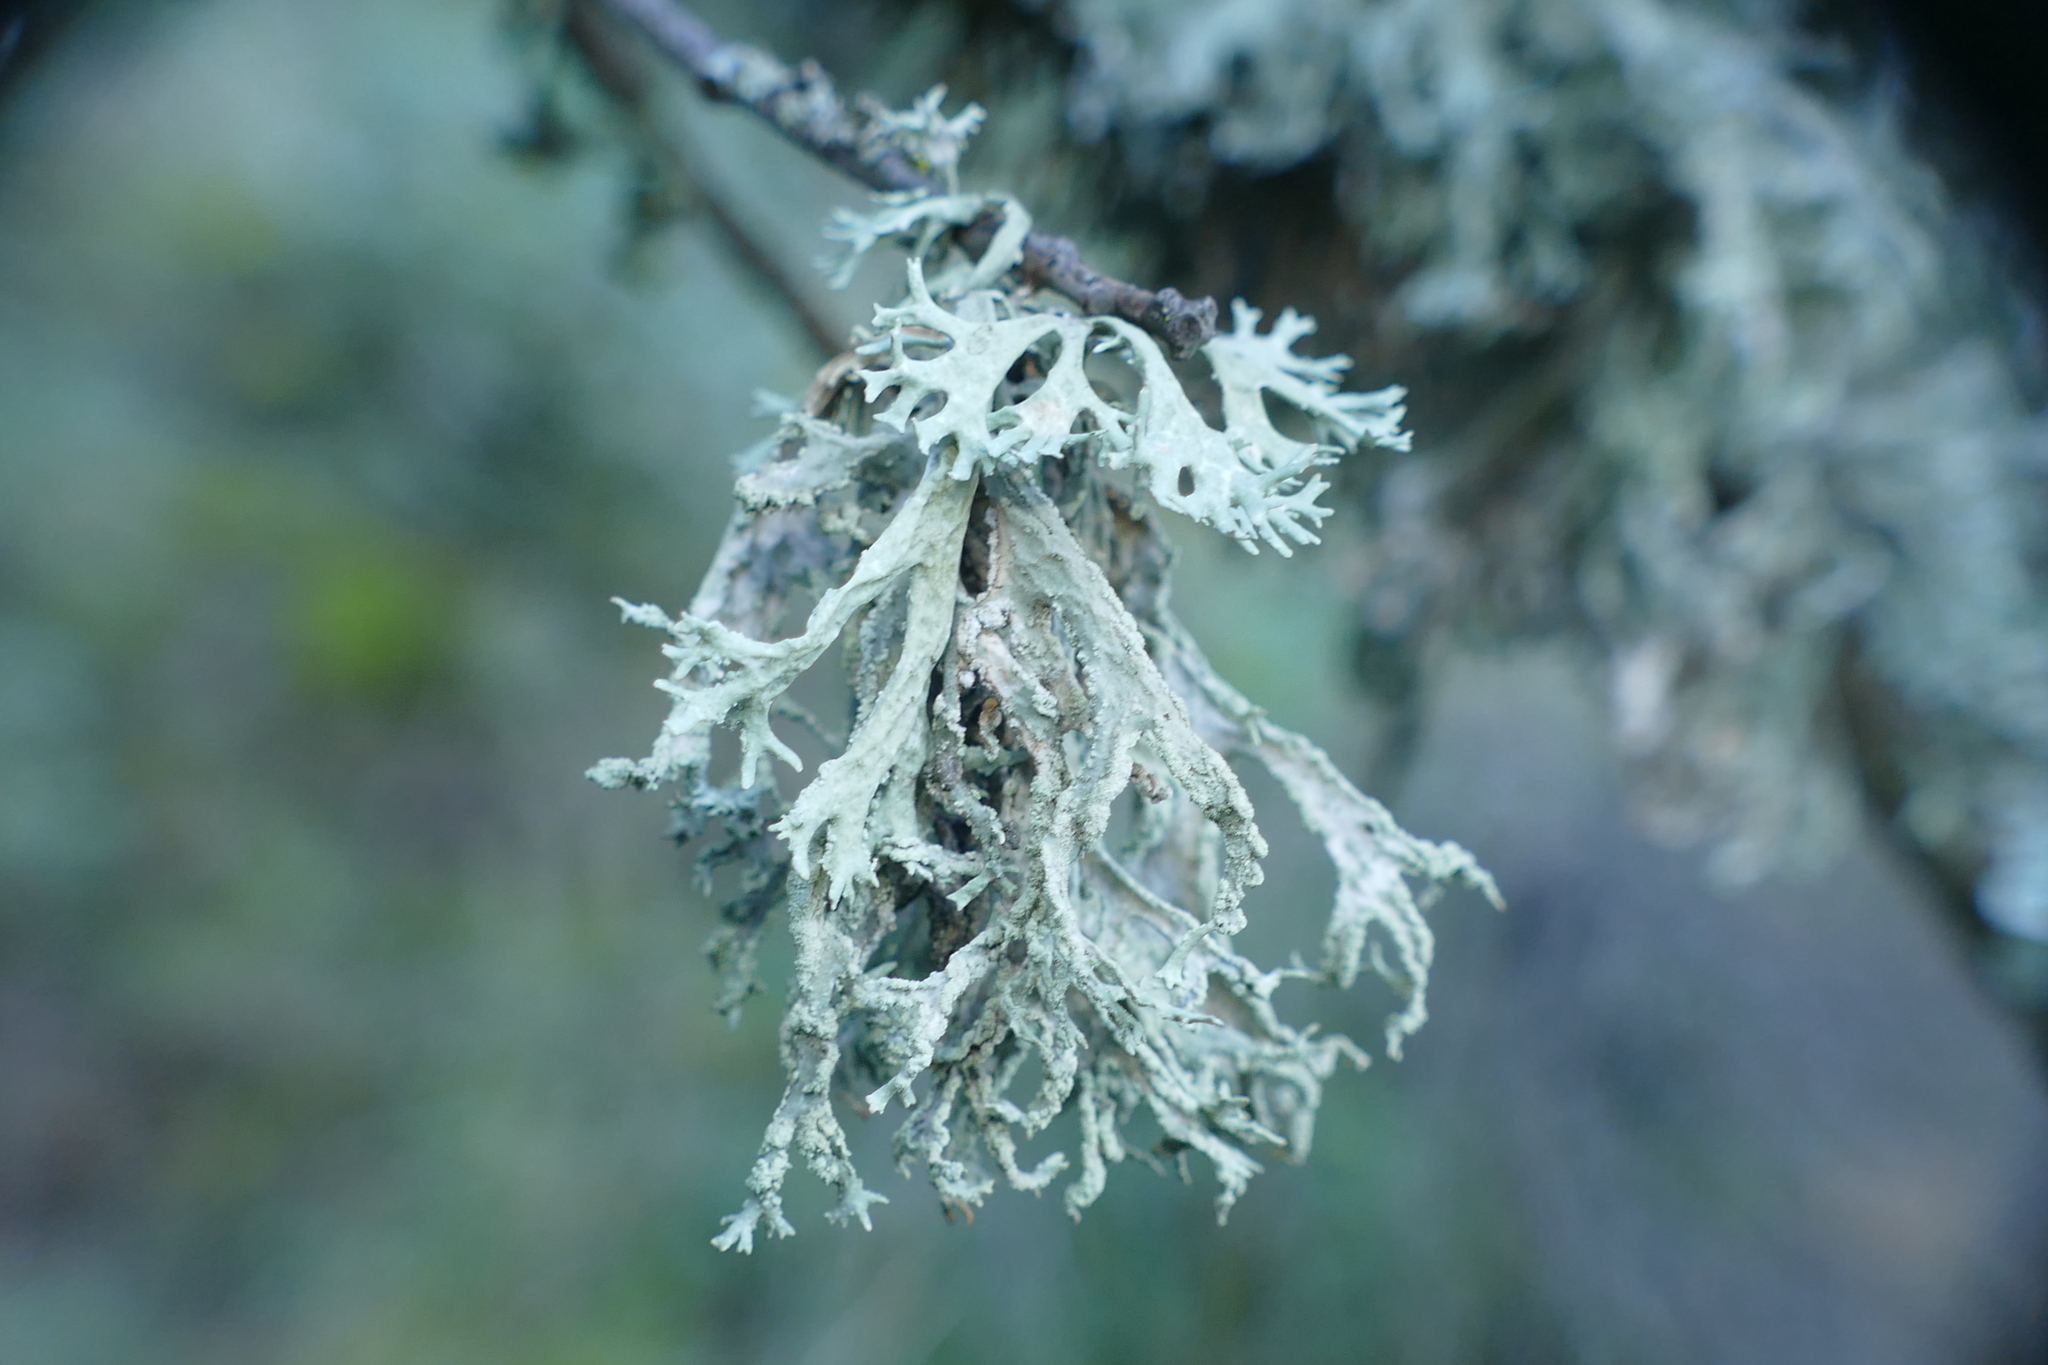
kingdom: Fungi
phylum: Ascomycota
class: Lecanoromycetes
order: Lecanorales
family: Parmeliaceae
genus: Evernia
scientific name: Evernia prunastri
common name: Oak moss
